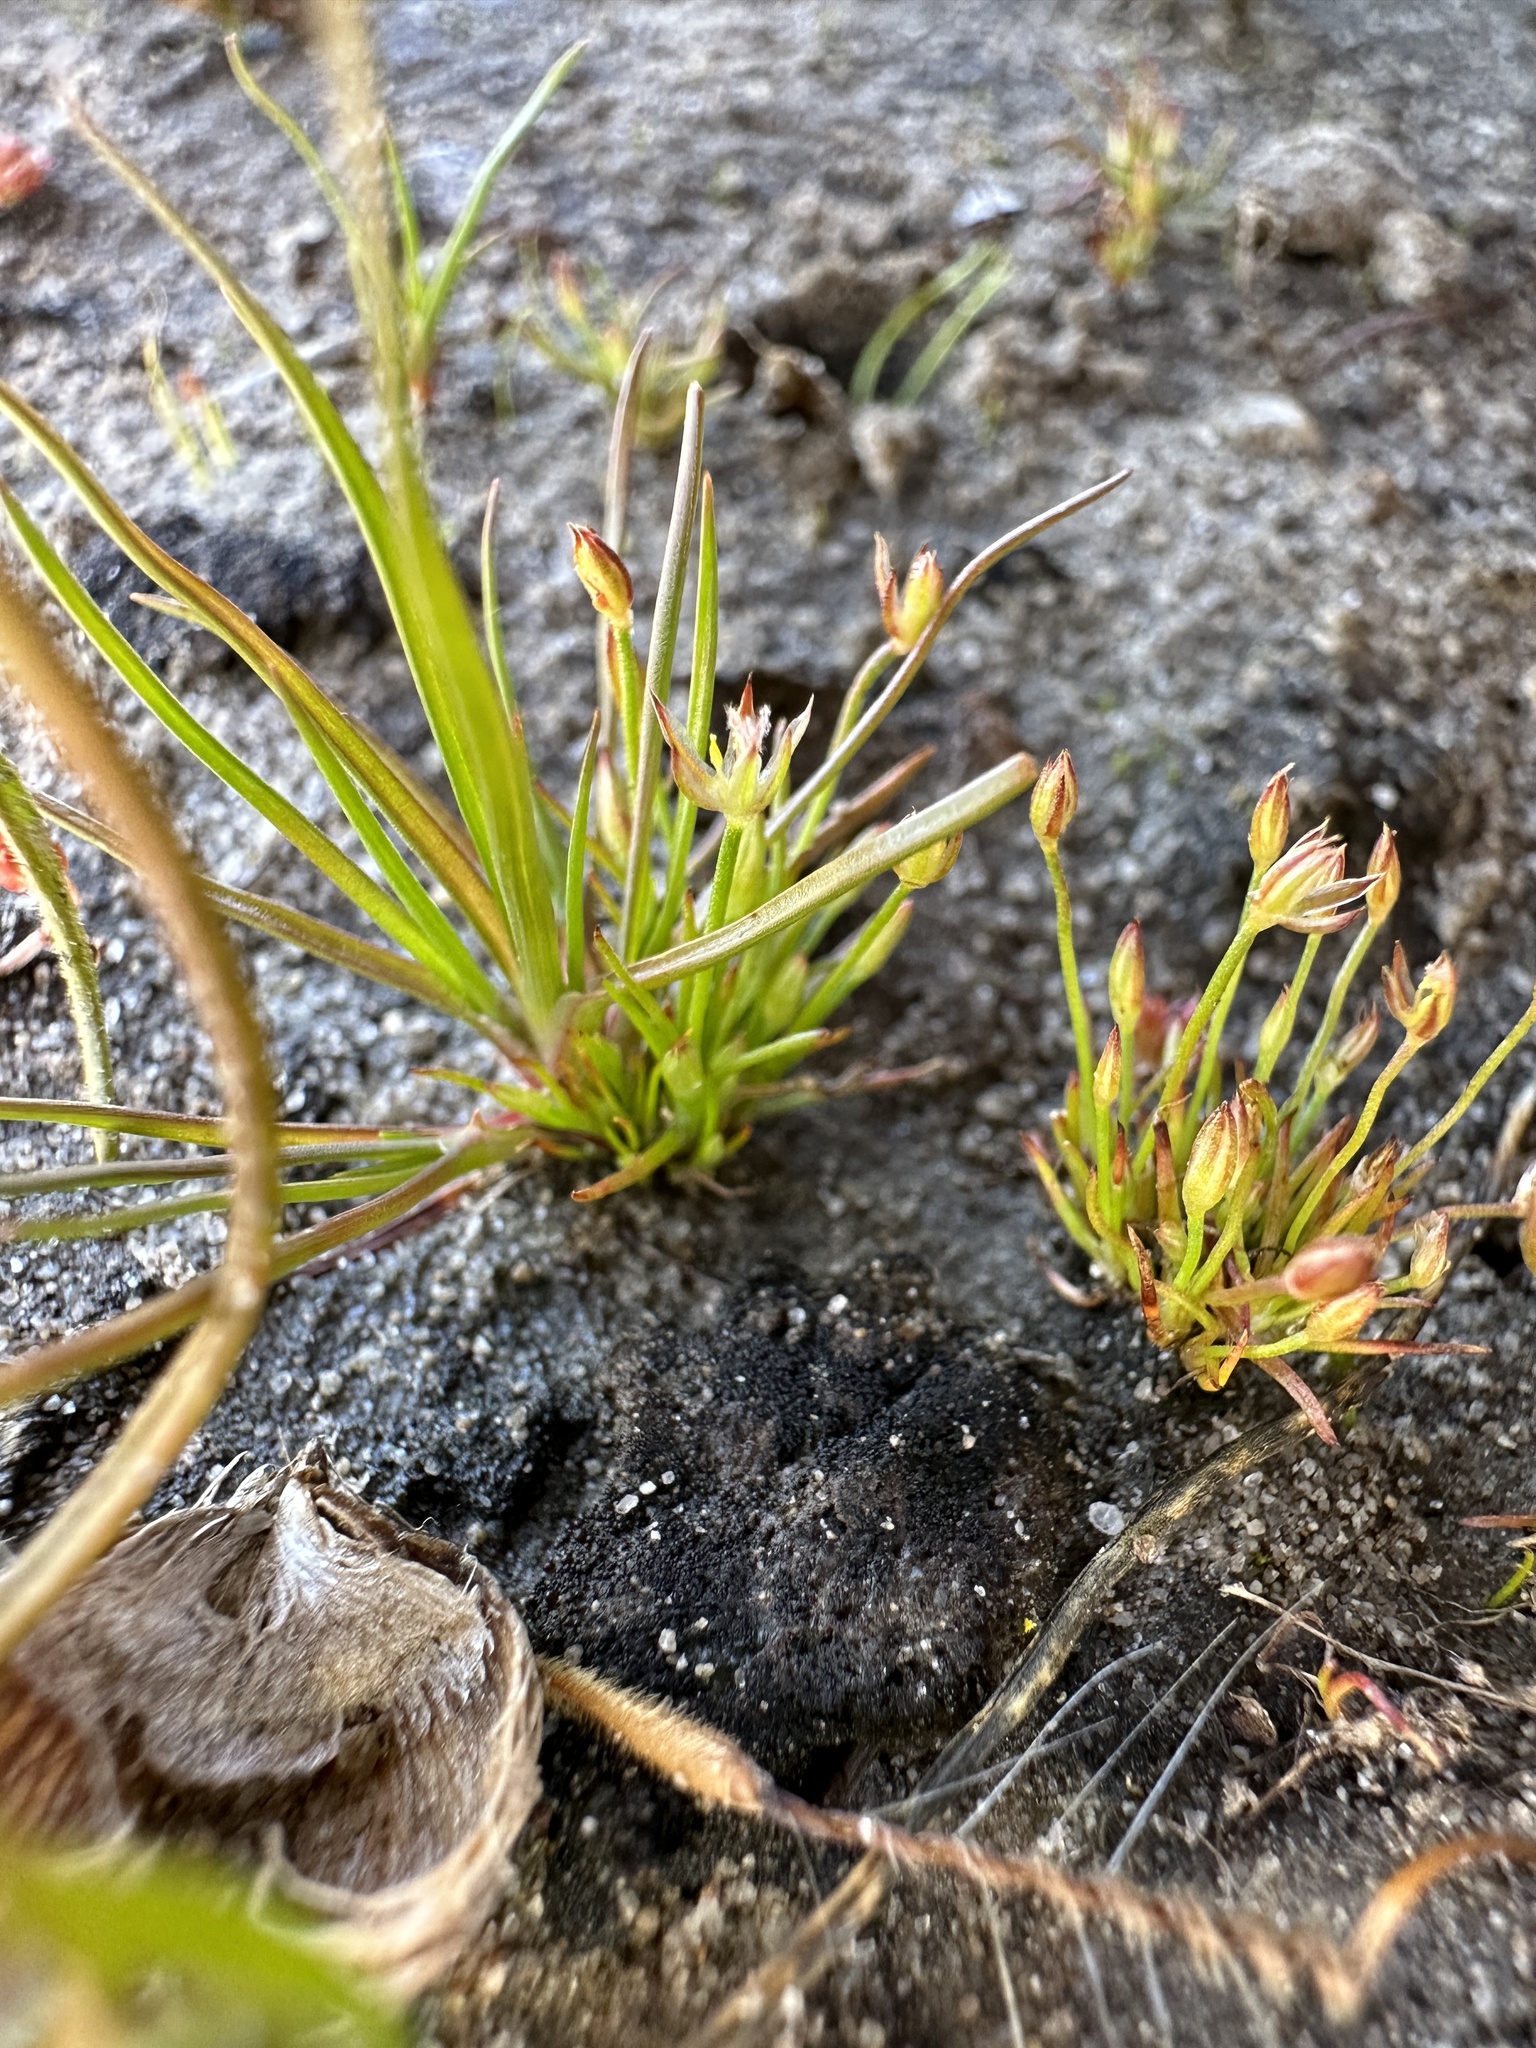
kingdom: Plantae
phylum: Tracheophyta
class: Liliopsida
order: Poales
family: Juncaceae
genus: Juncus
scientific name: Juncus luciensis
